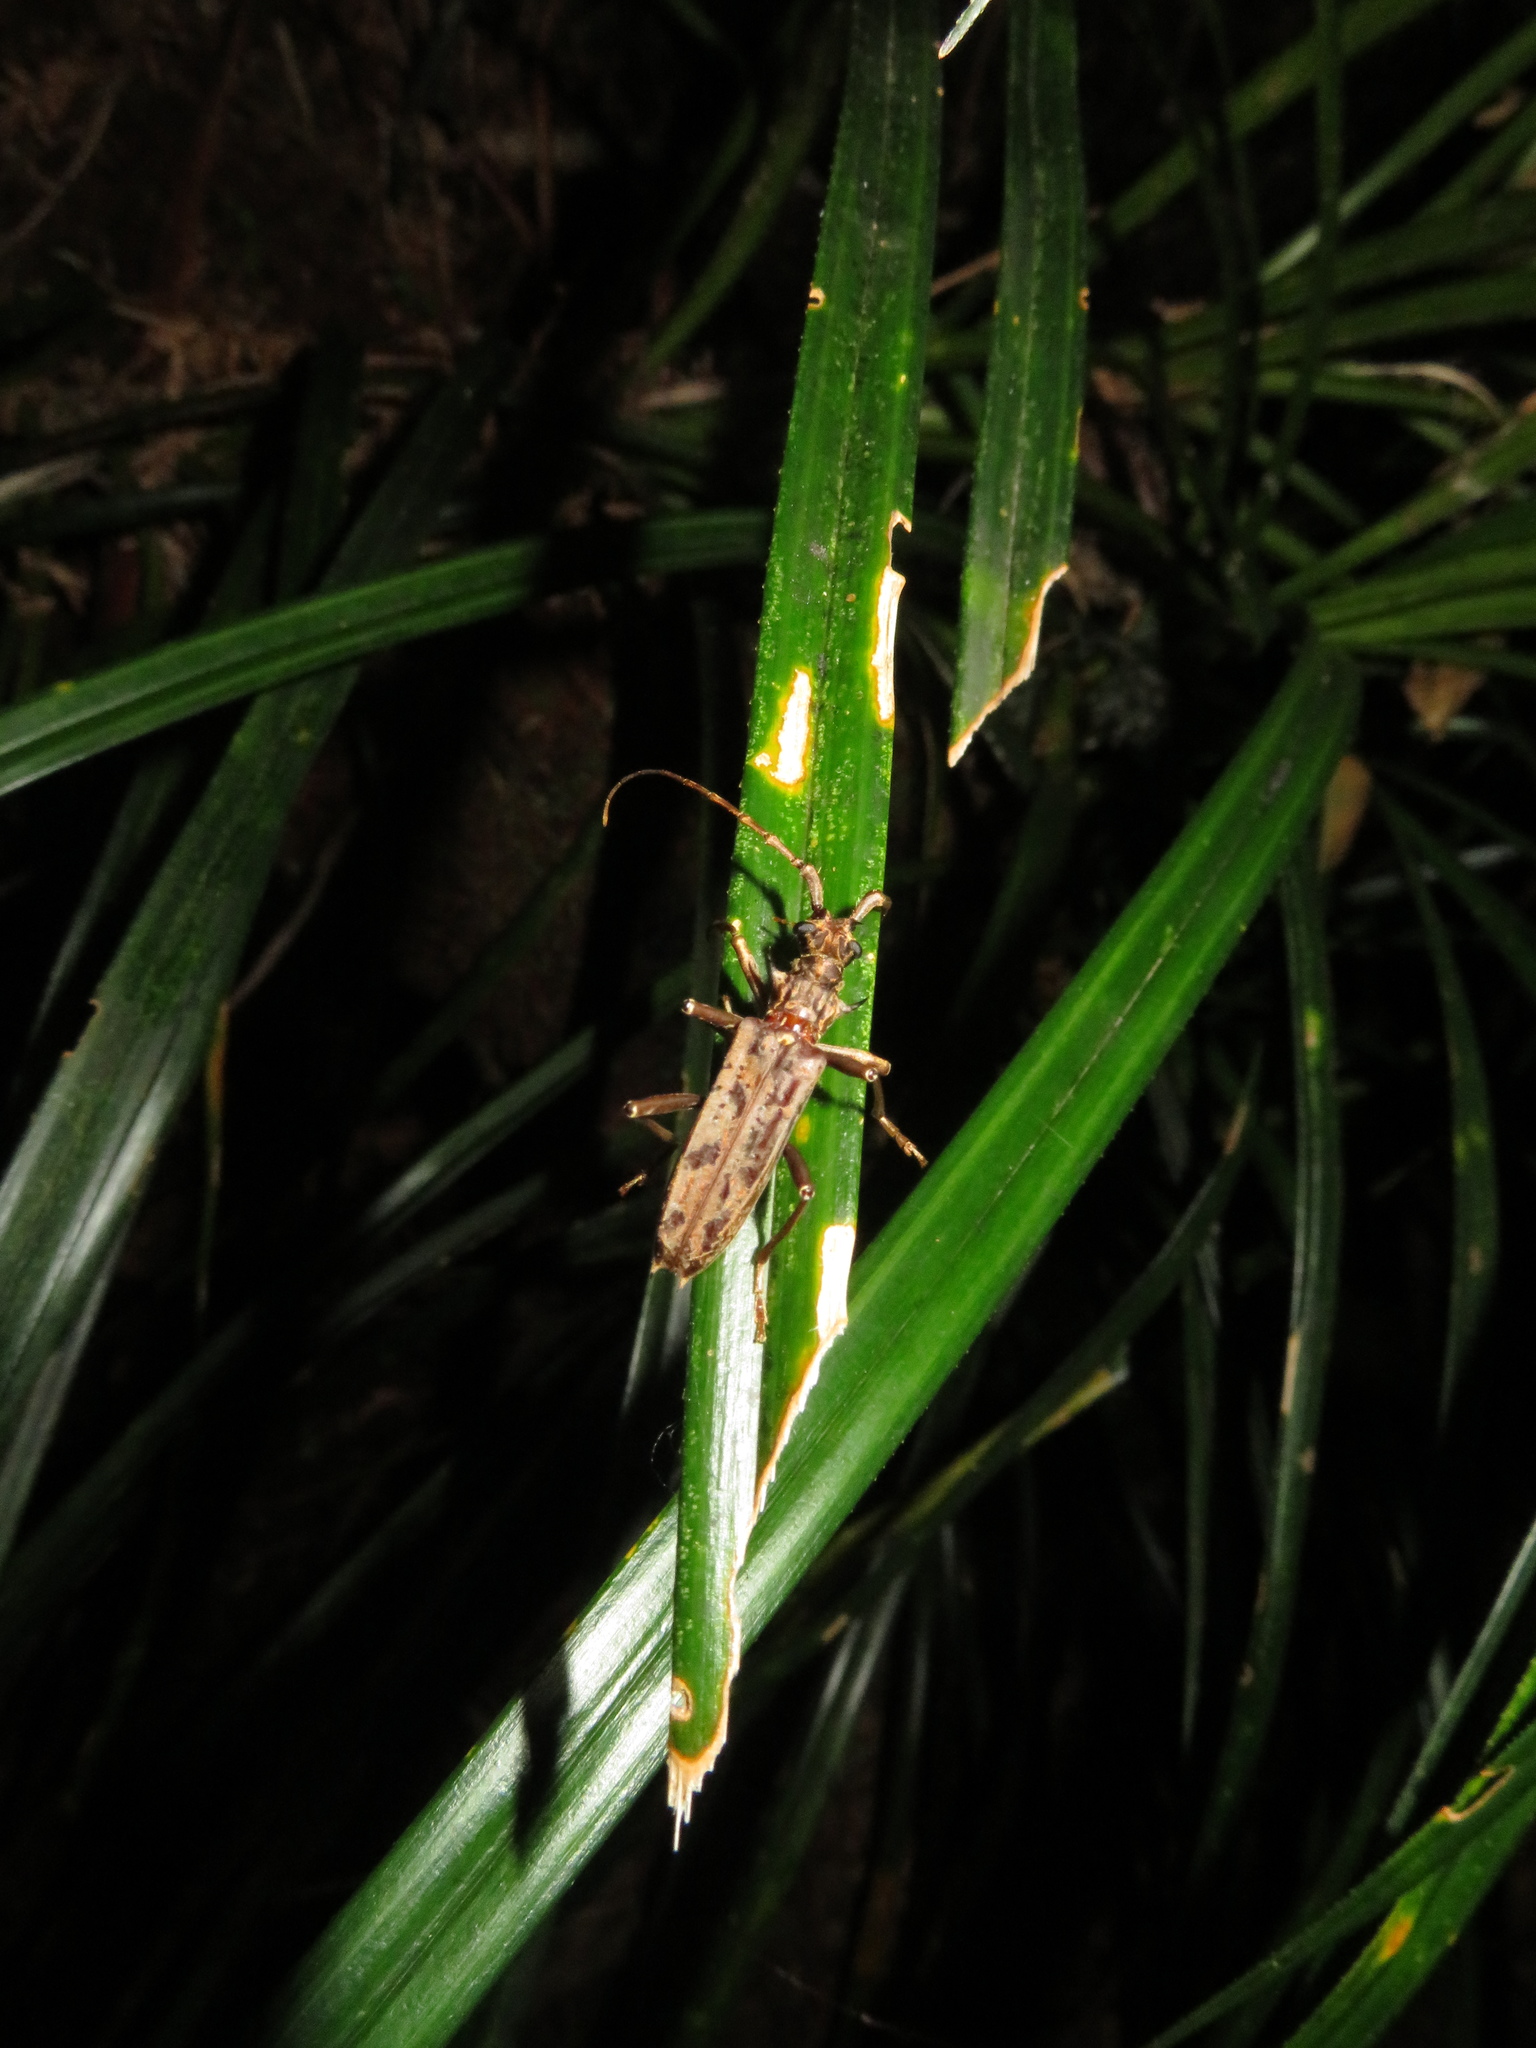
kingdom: Animalia
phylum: Arthropoda
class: Insecta
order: Coleoptera
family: Cerambycidae
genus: Blosyropus
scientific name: Blosyropus spinosus
